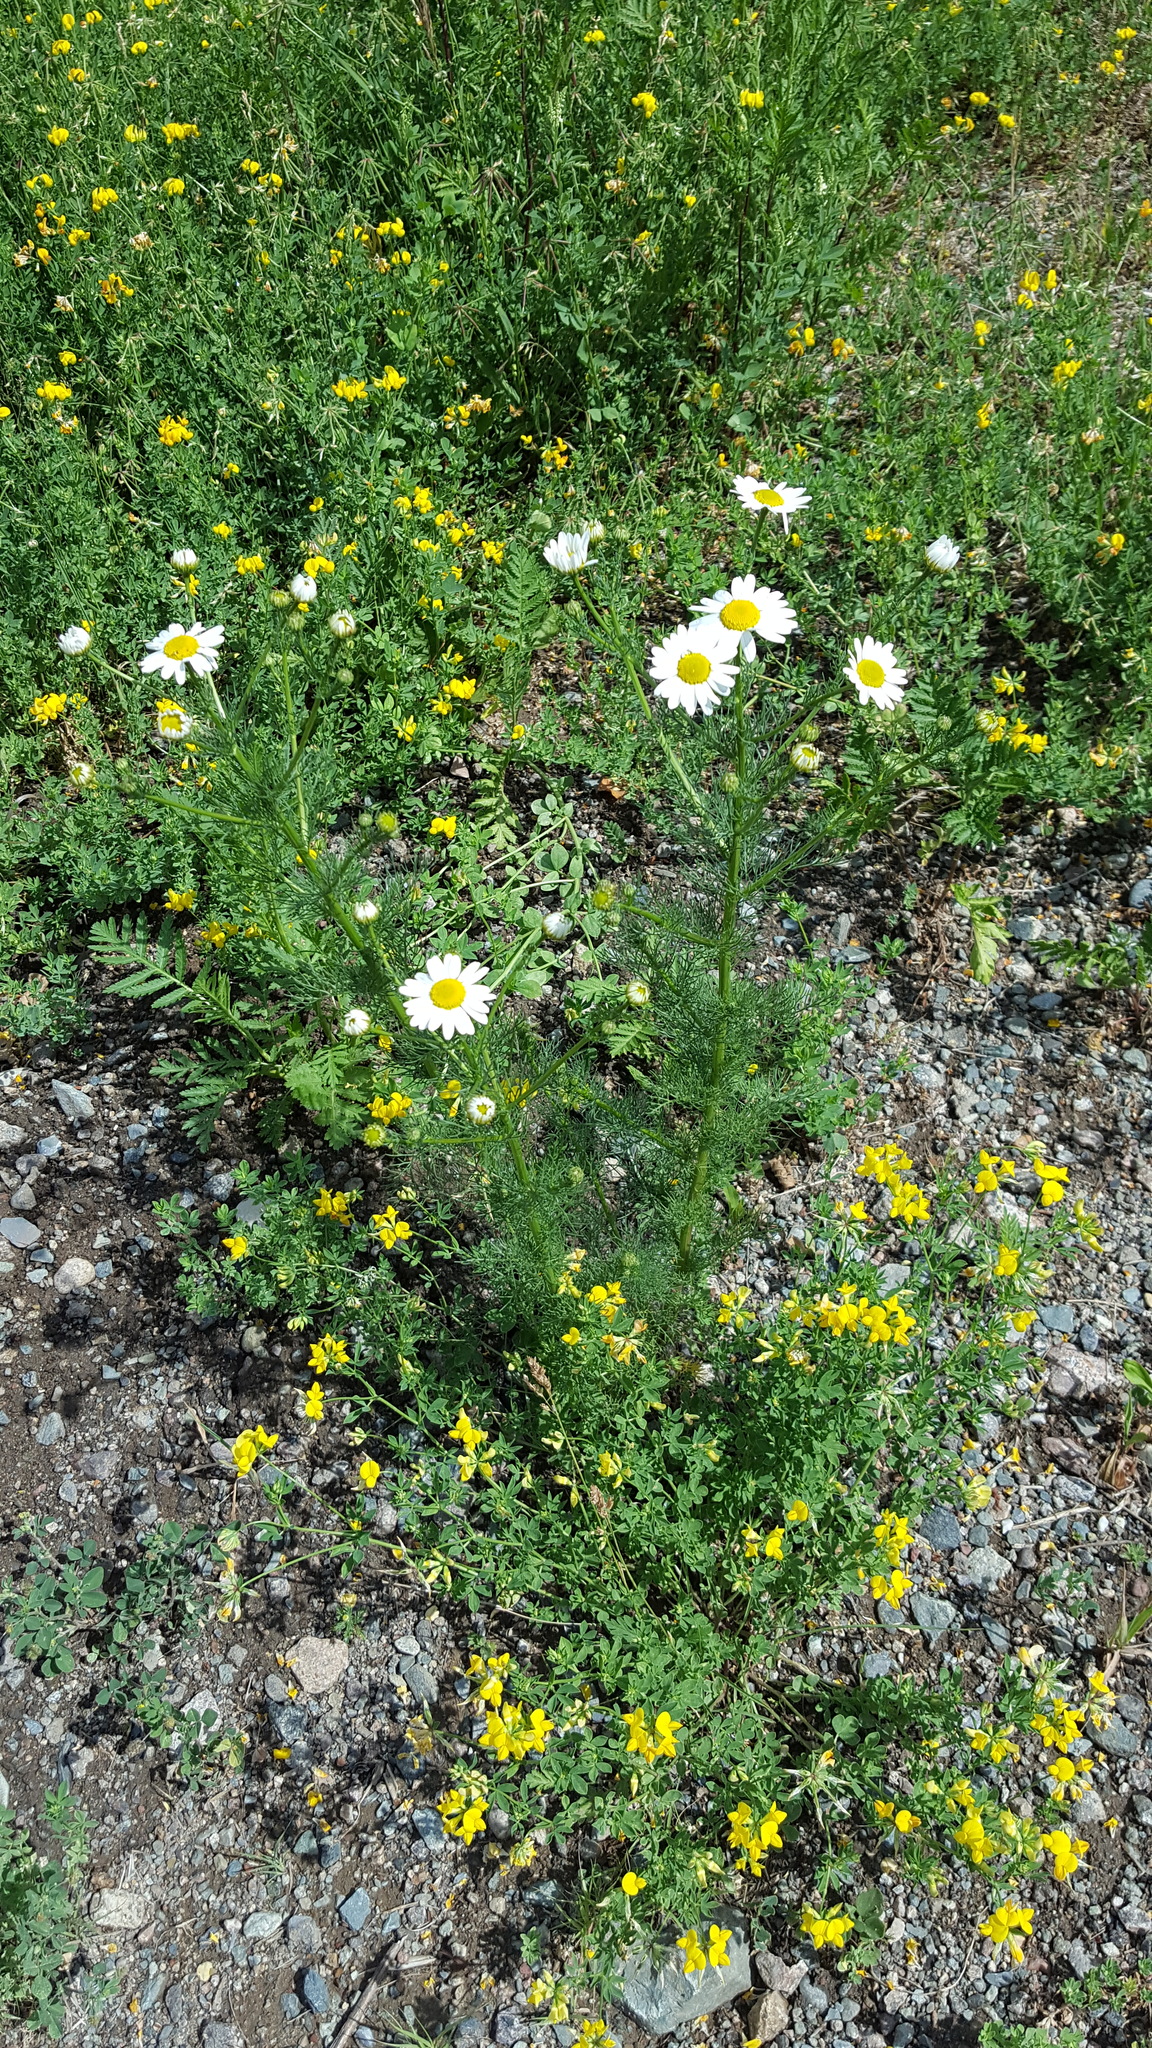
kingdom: Plantae
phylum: Tracheophyta
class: Magnoliopsida
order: Asterales
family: Asteraceae
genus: Tripleurospermum
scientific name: Tripleurospermum inodorum
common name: Scentless mayweed
